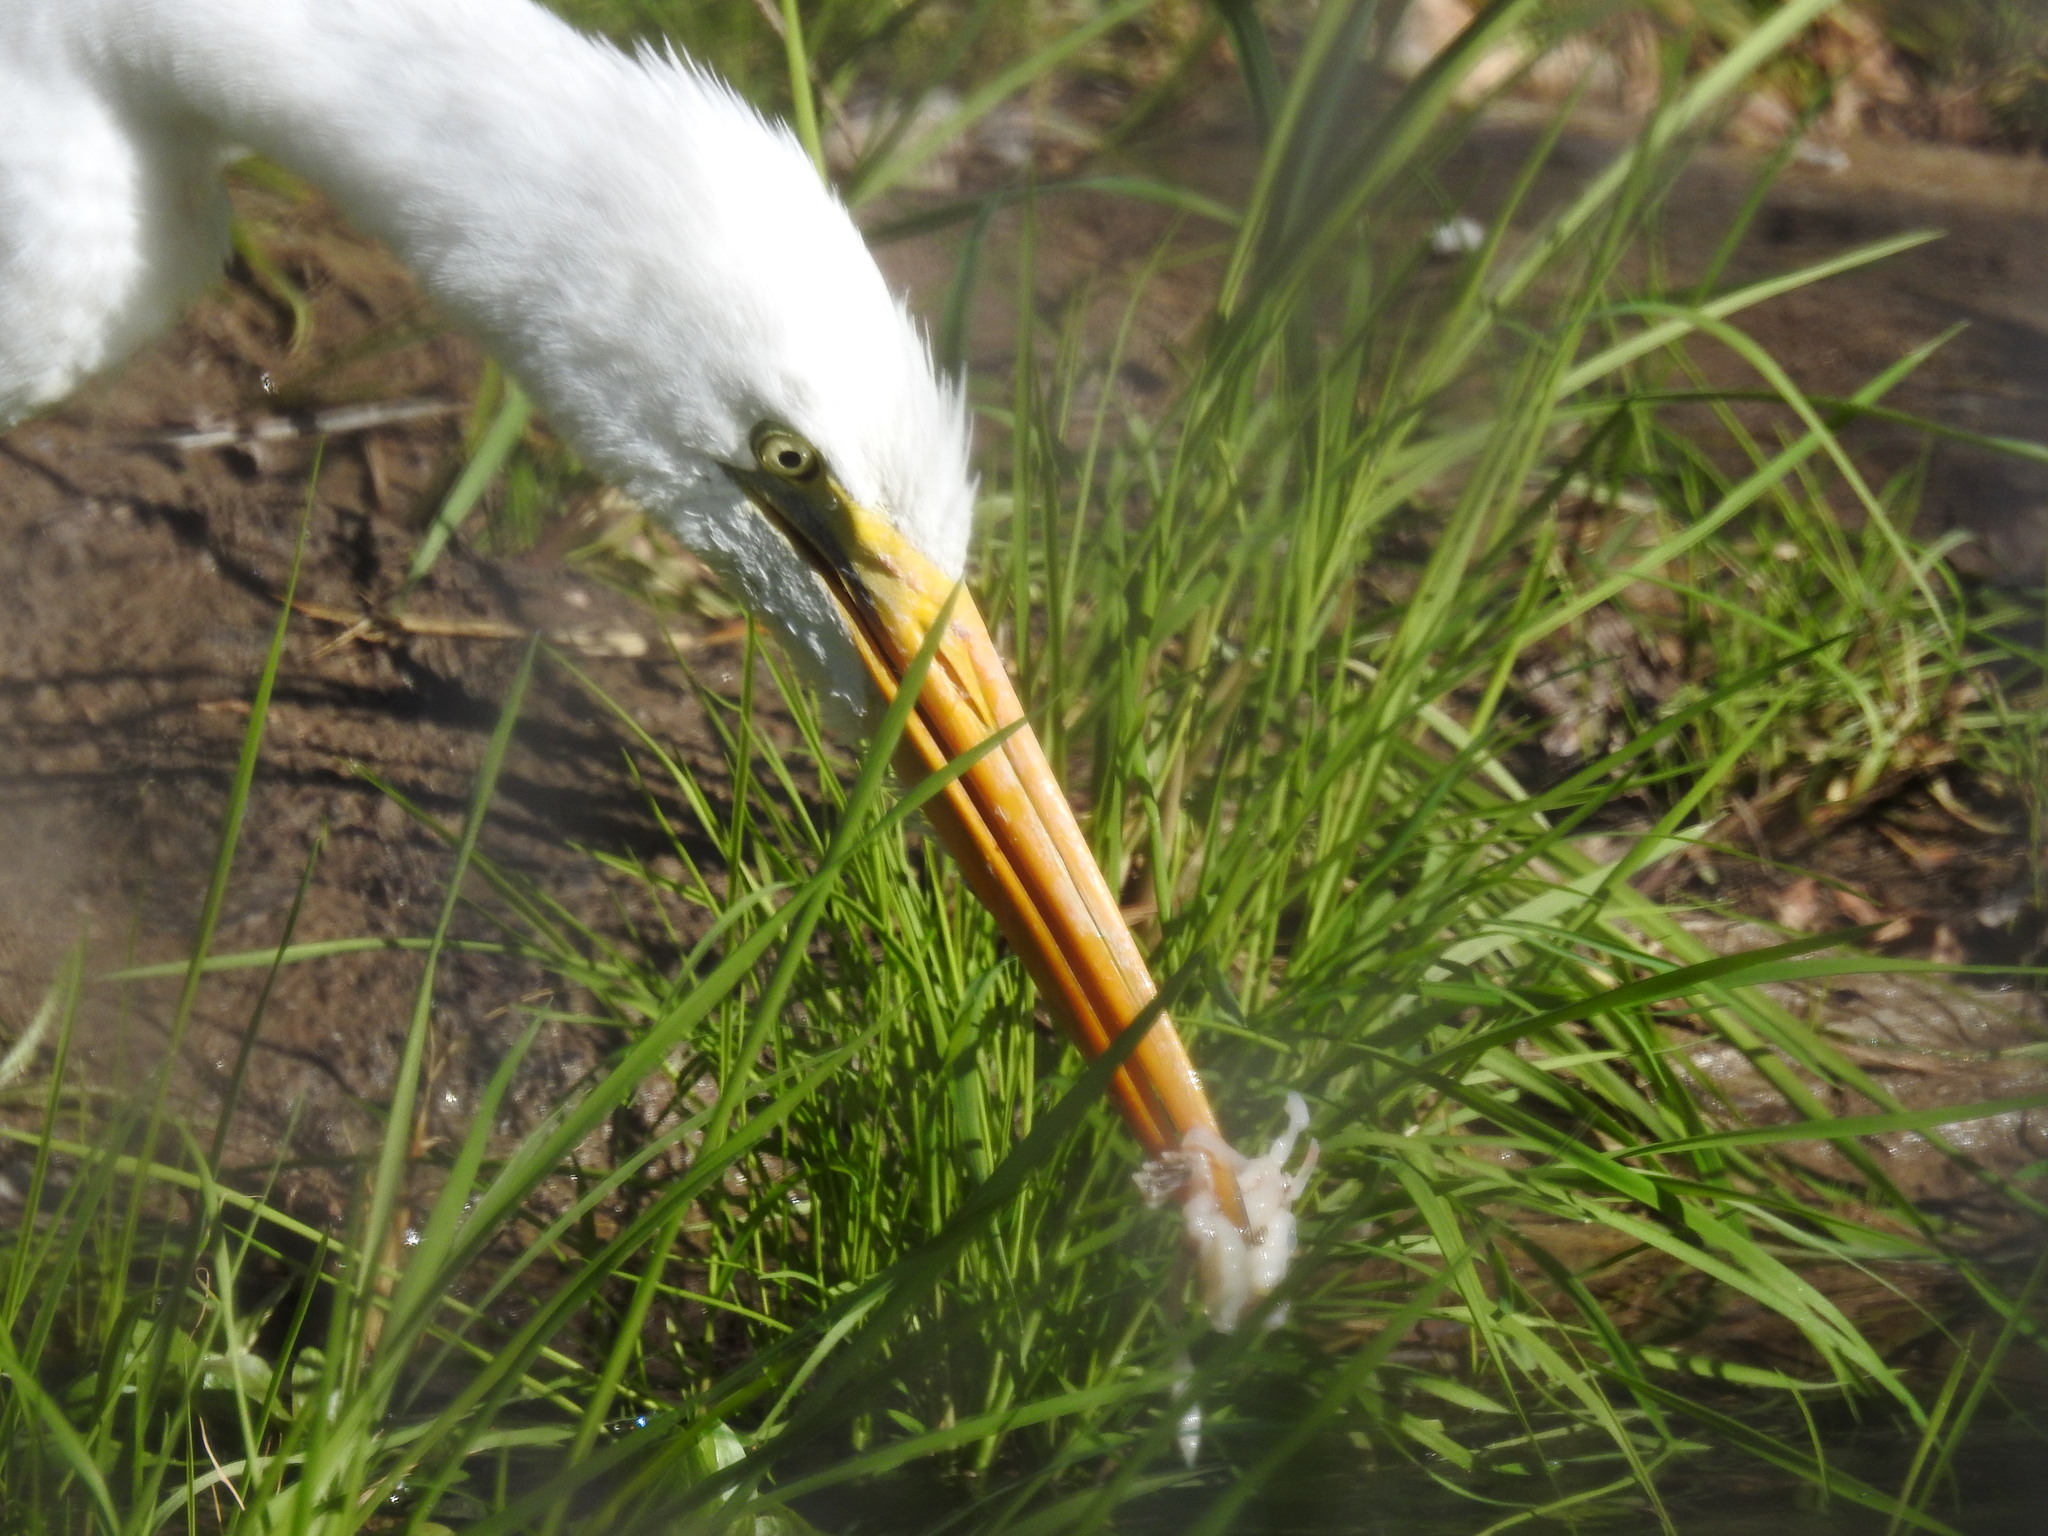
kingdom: Animalia
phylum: Chordata
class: Aves
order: Pelecaniformes
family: Ardeidae
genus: Ardea
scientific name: Ardea alba
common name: Great egret
